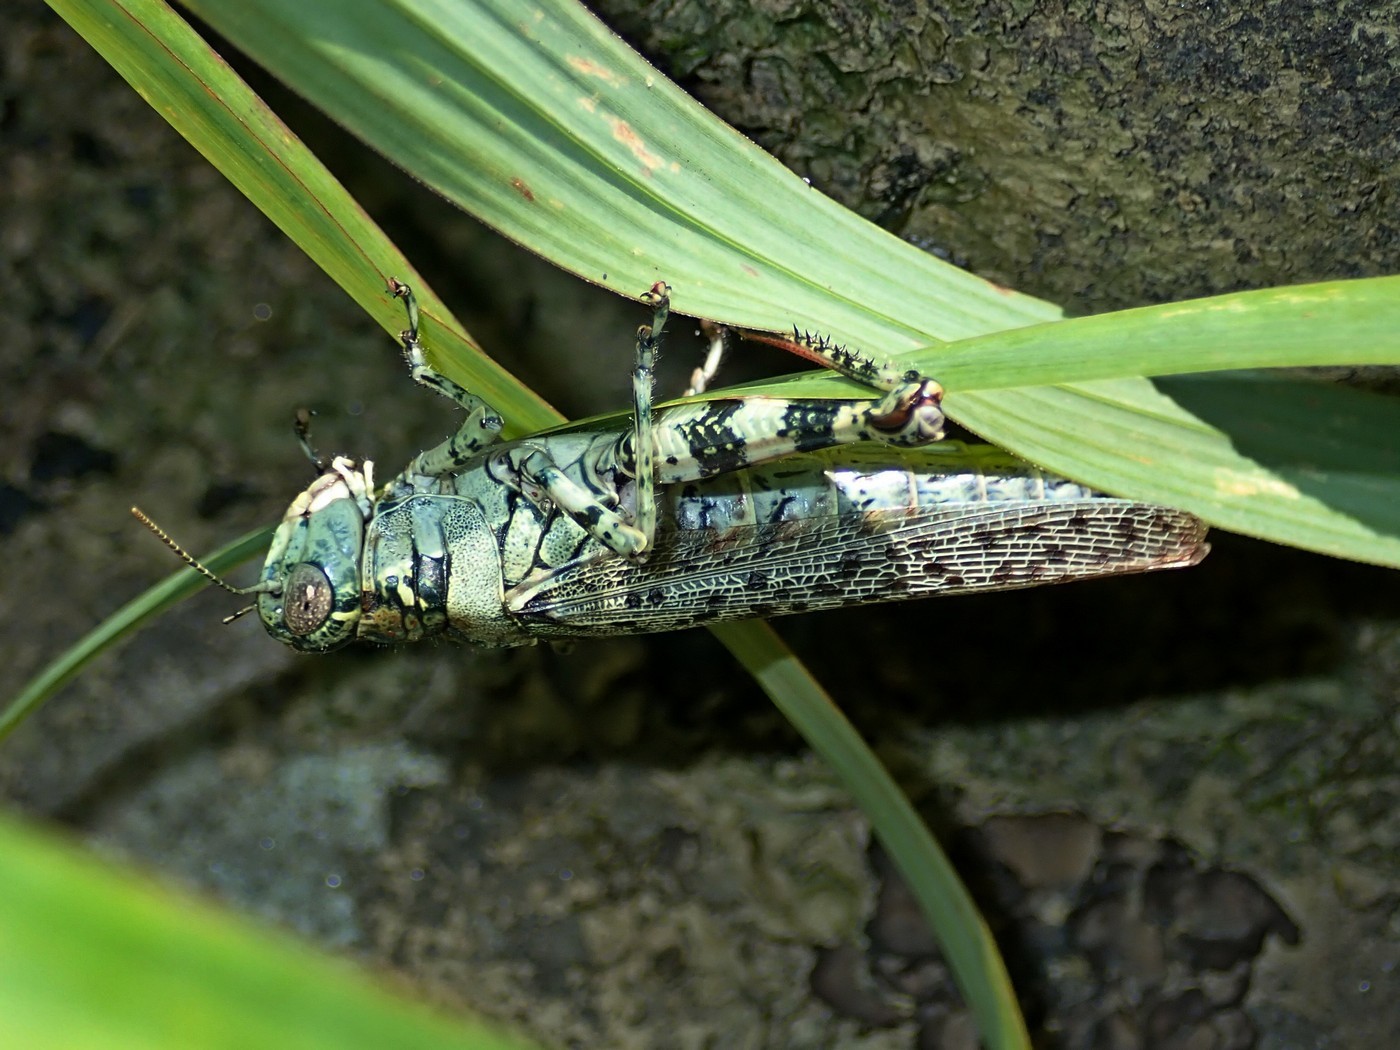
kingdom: Animalia
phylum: Arthropoda
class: Insecta
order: Orthoptera
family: Acrididae
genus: Melanoplus
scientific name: Melanoplus punctulatus
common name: Pine-tree spur-throat grasshopper
